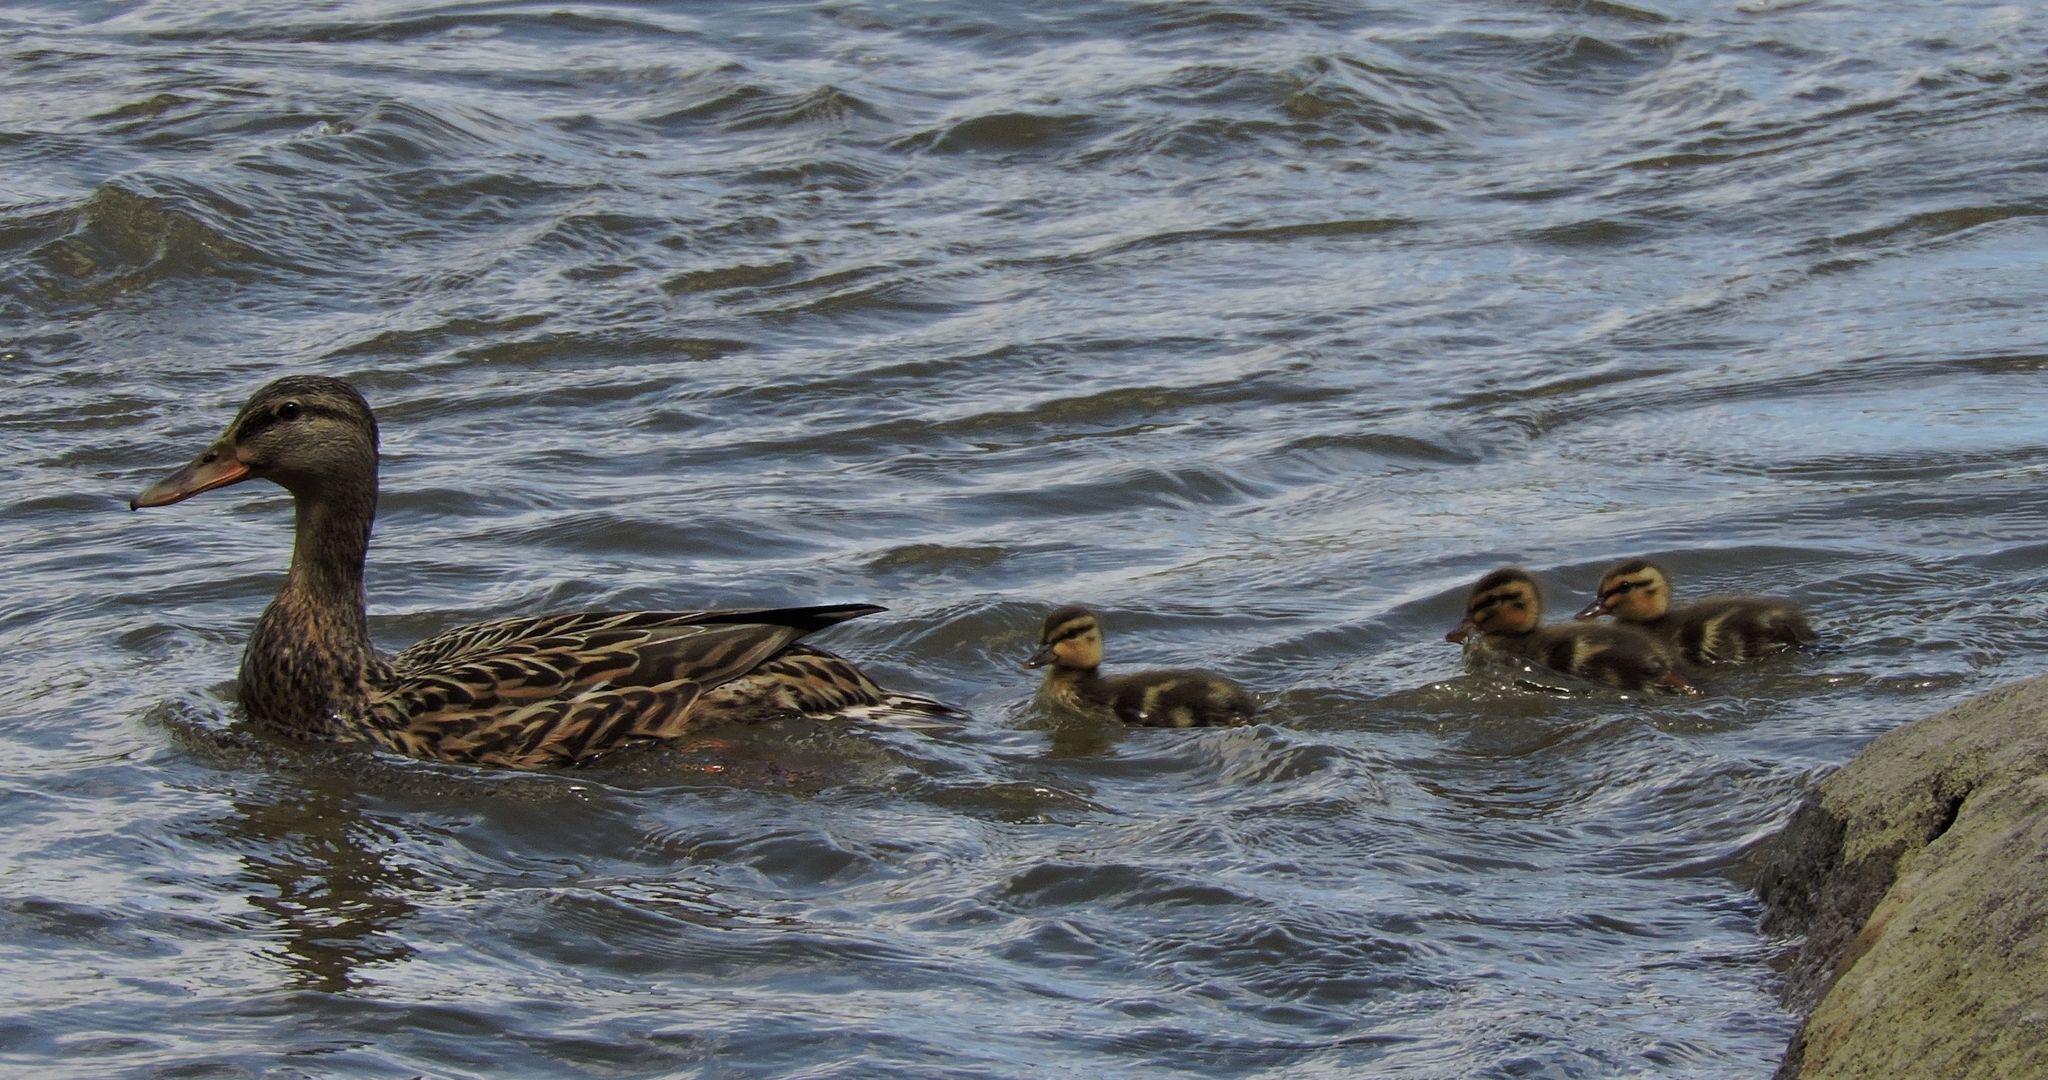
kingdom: Animalia
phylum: Chordata
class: Aves
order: Anseriformes
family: Anatidae
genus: Anas
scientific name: Anas platyrhynchos
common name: Mallard
